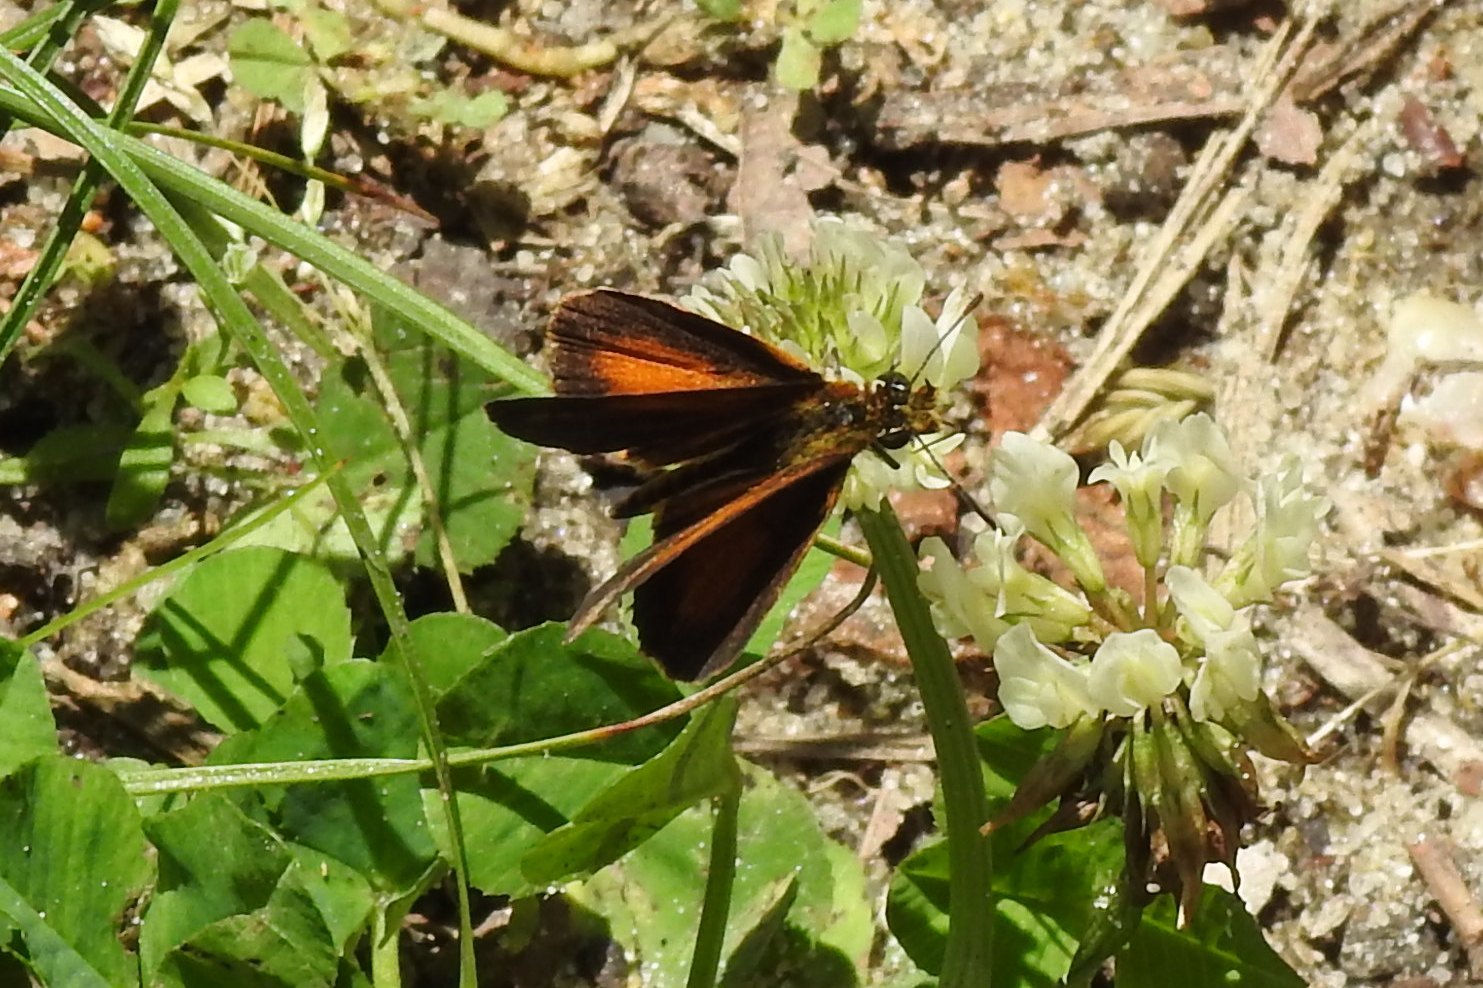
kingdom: Animalia
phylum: Arthropoda
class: Insecta
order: Lepidoptera
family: Hesperiidae
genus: Ancyloxypha
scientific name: Ancyloxypha numitor
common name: Least skipper
